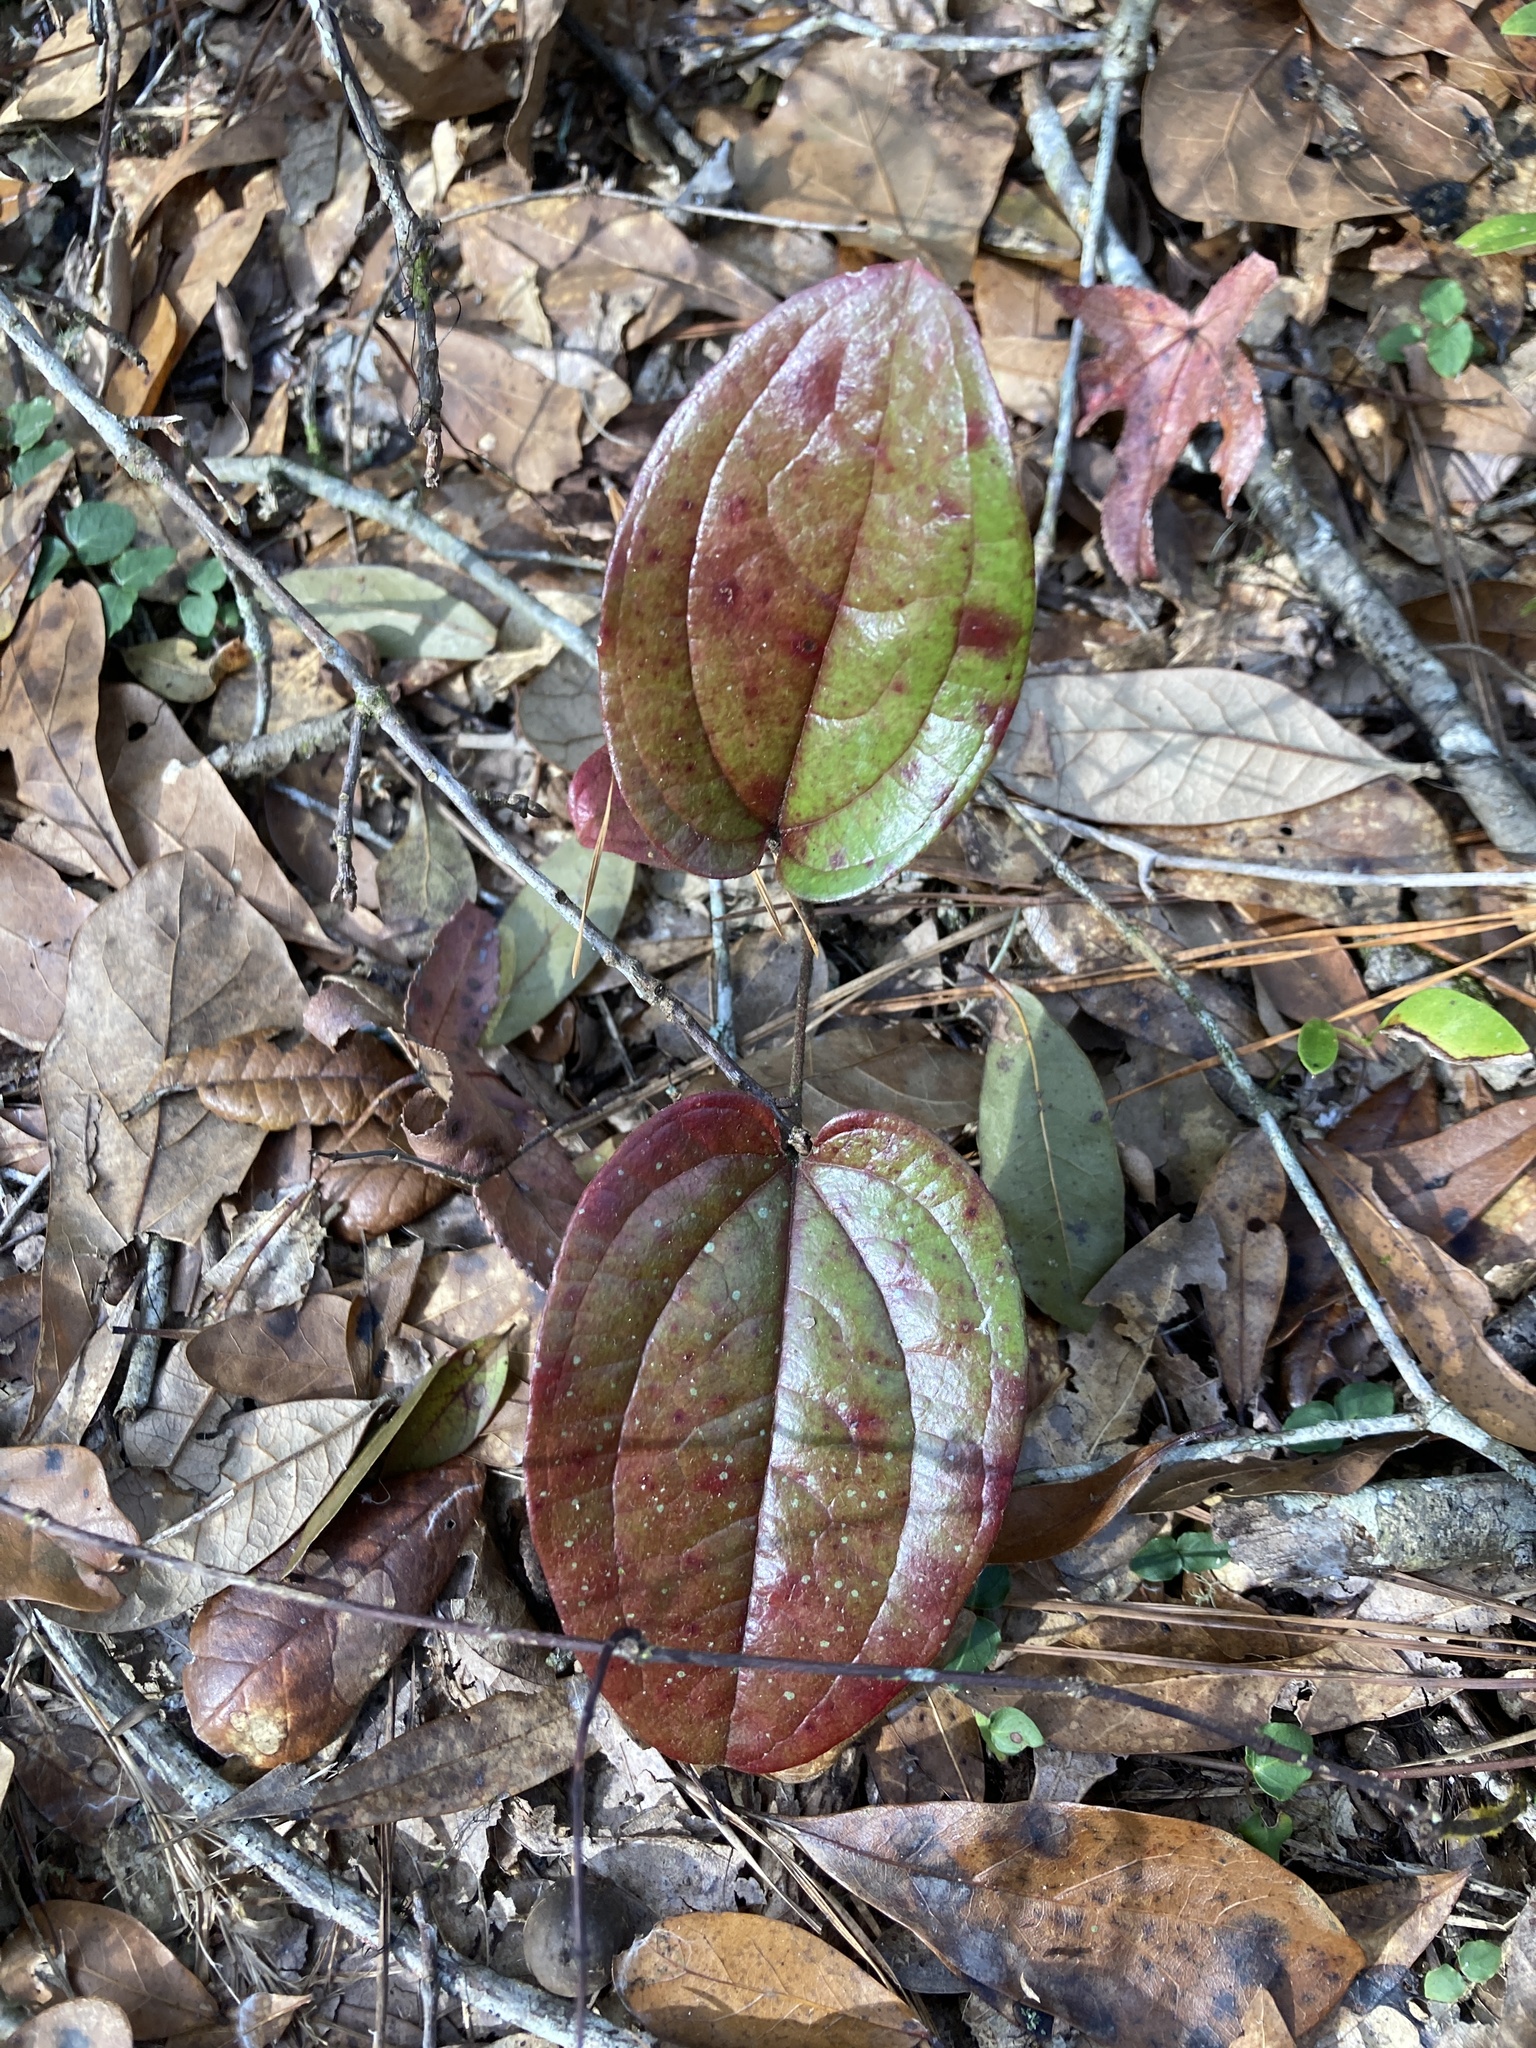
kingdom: Plantae
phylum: Tracheophyta
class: Liliopsida
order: Liliales
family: Smilacaceae
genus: Smilax
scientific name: Smilax pumila
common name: Sarsaparilla-vine
